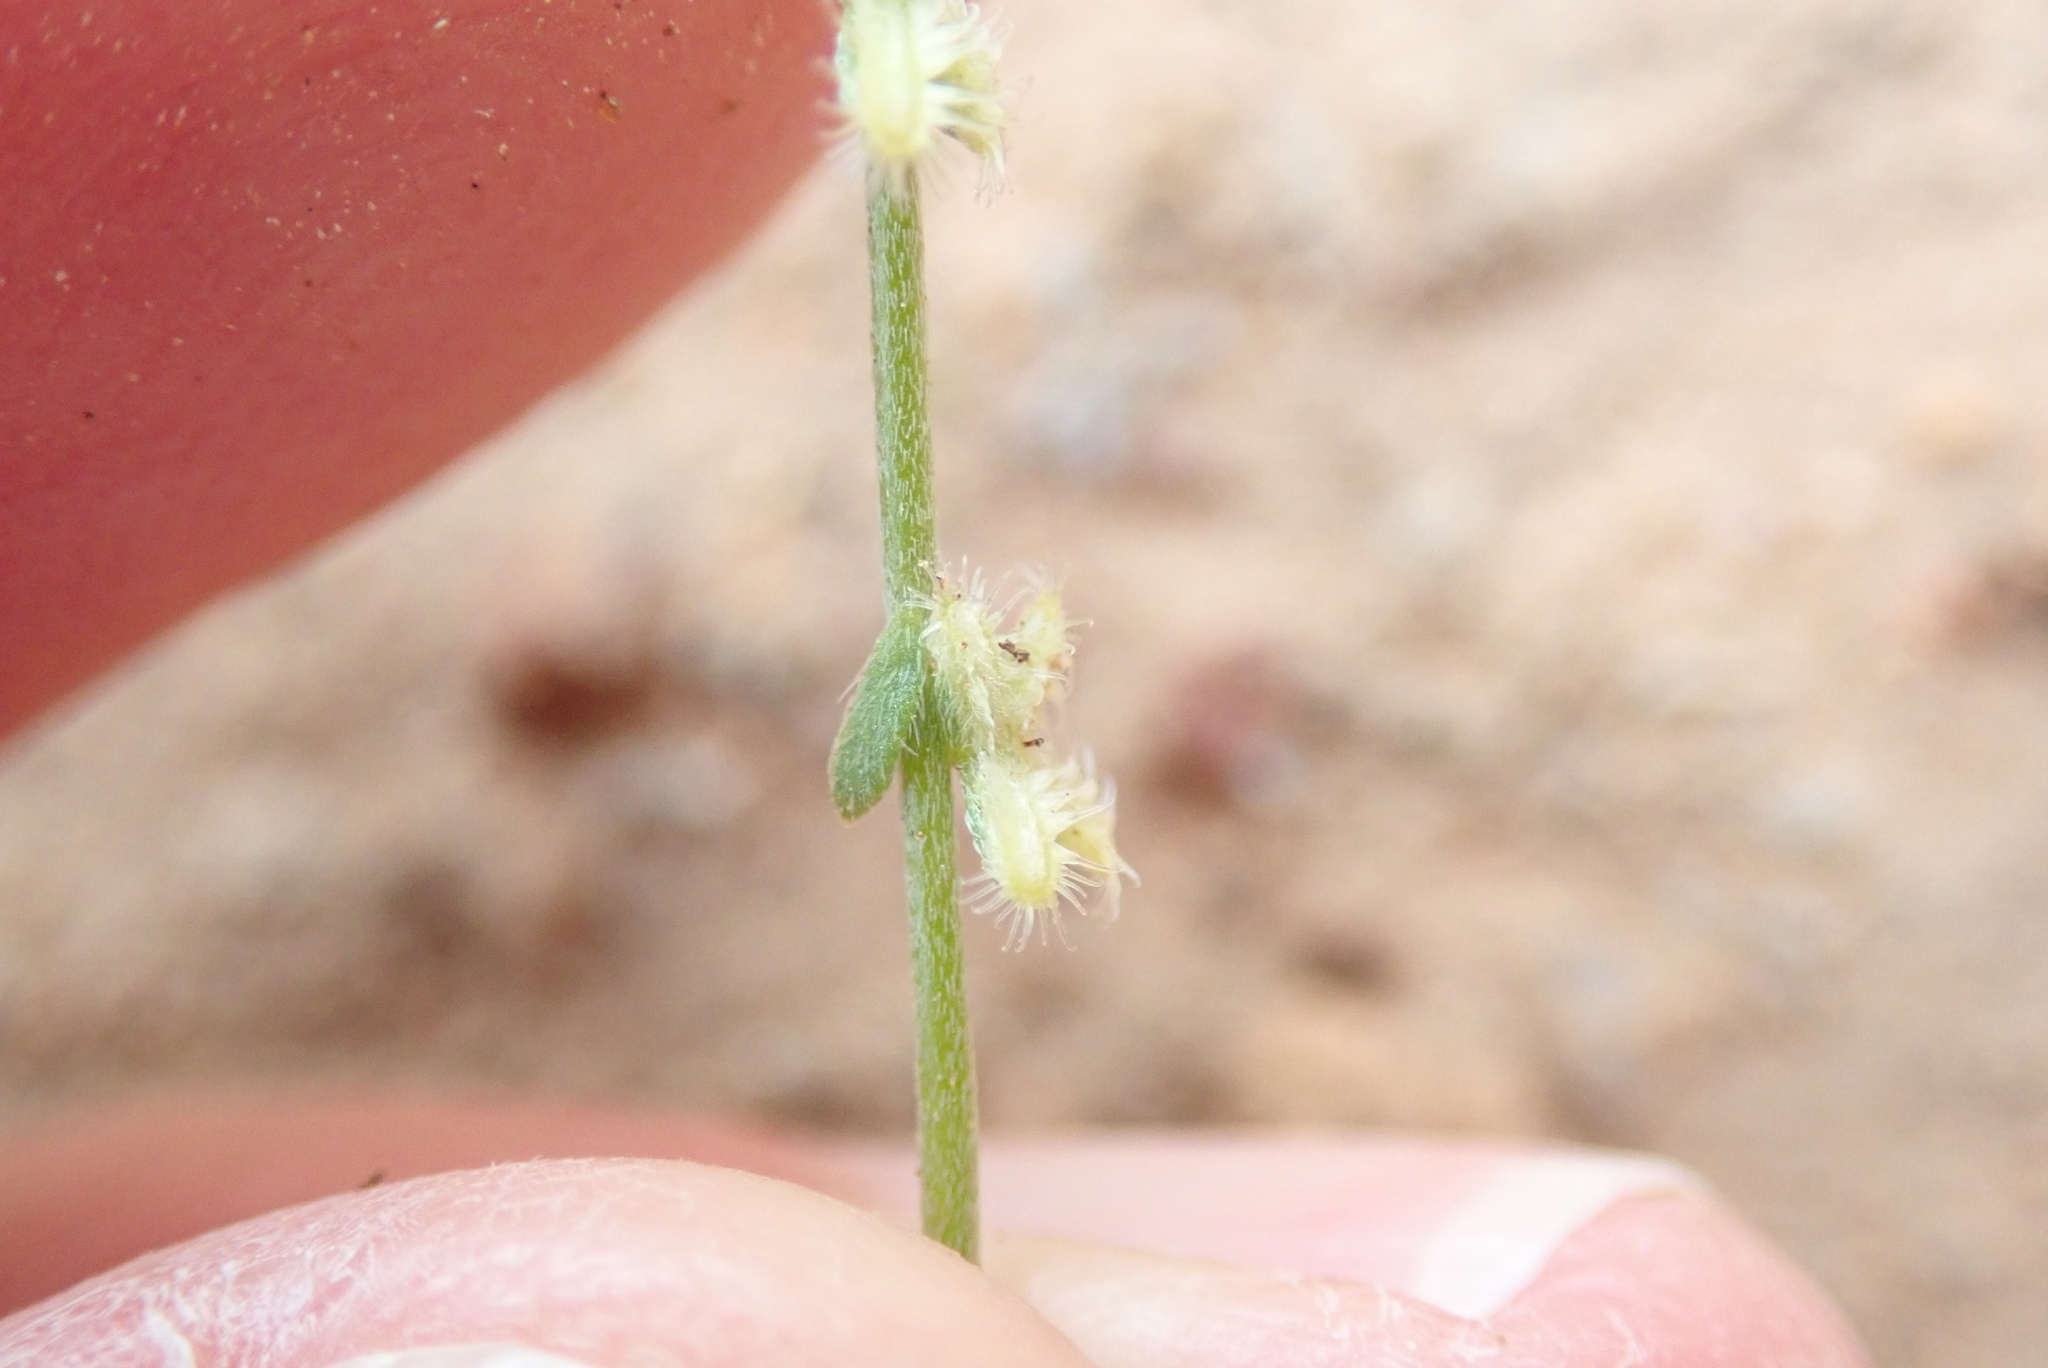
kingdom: Plantae
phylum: Tracheophyta
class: Magnoliopsida
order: Boraginales
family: Boraginaceae
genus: Pectocarya
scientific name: Pectocarya linearis
